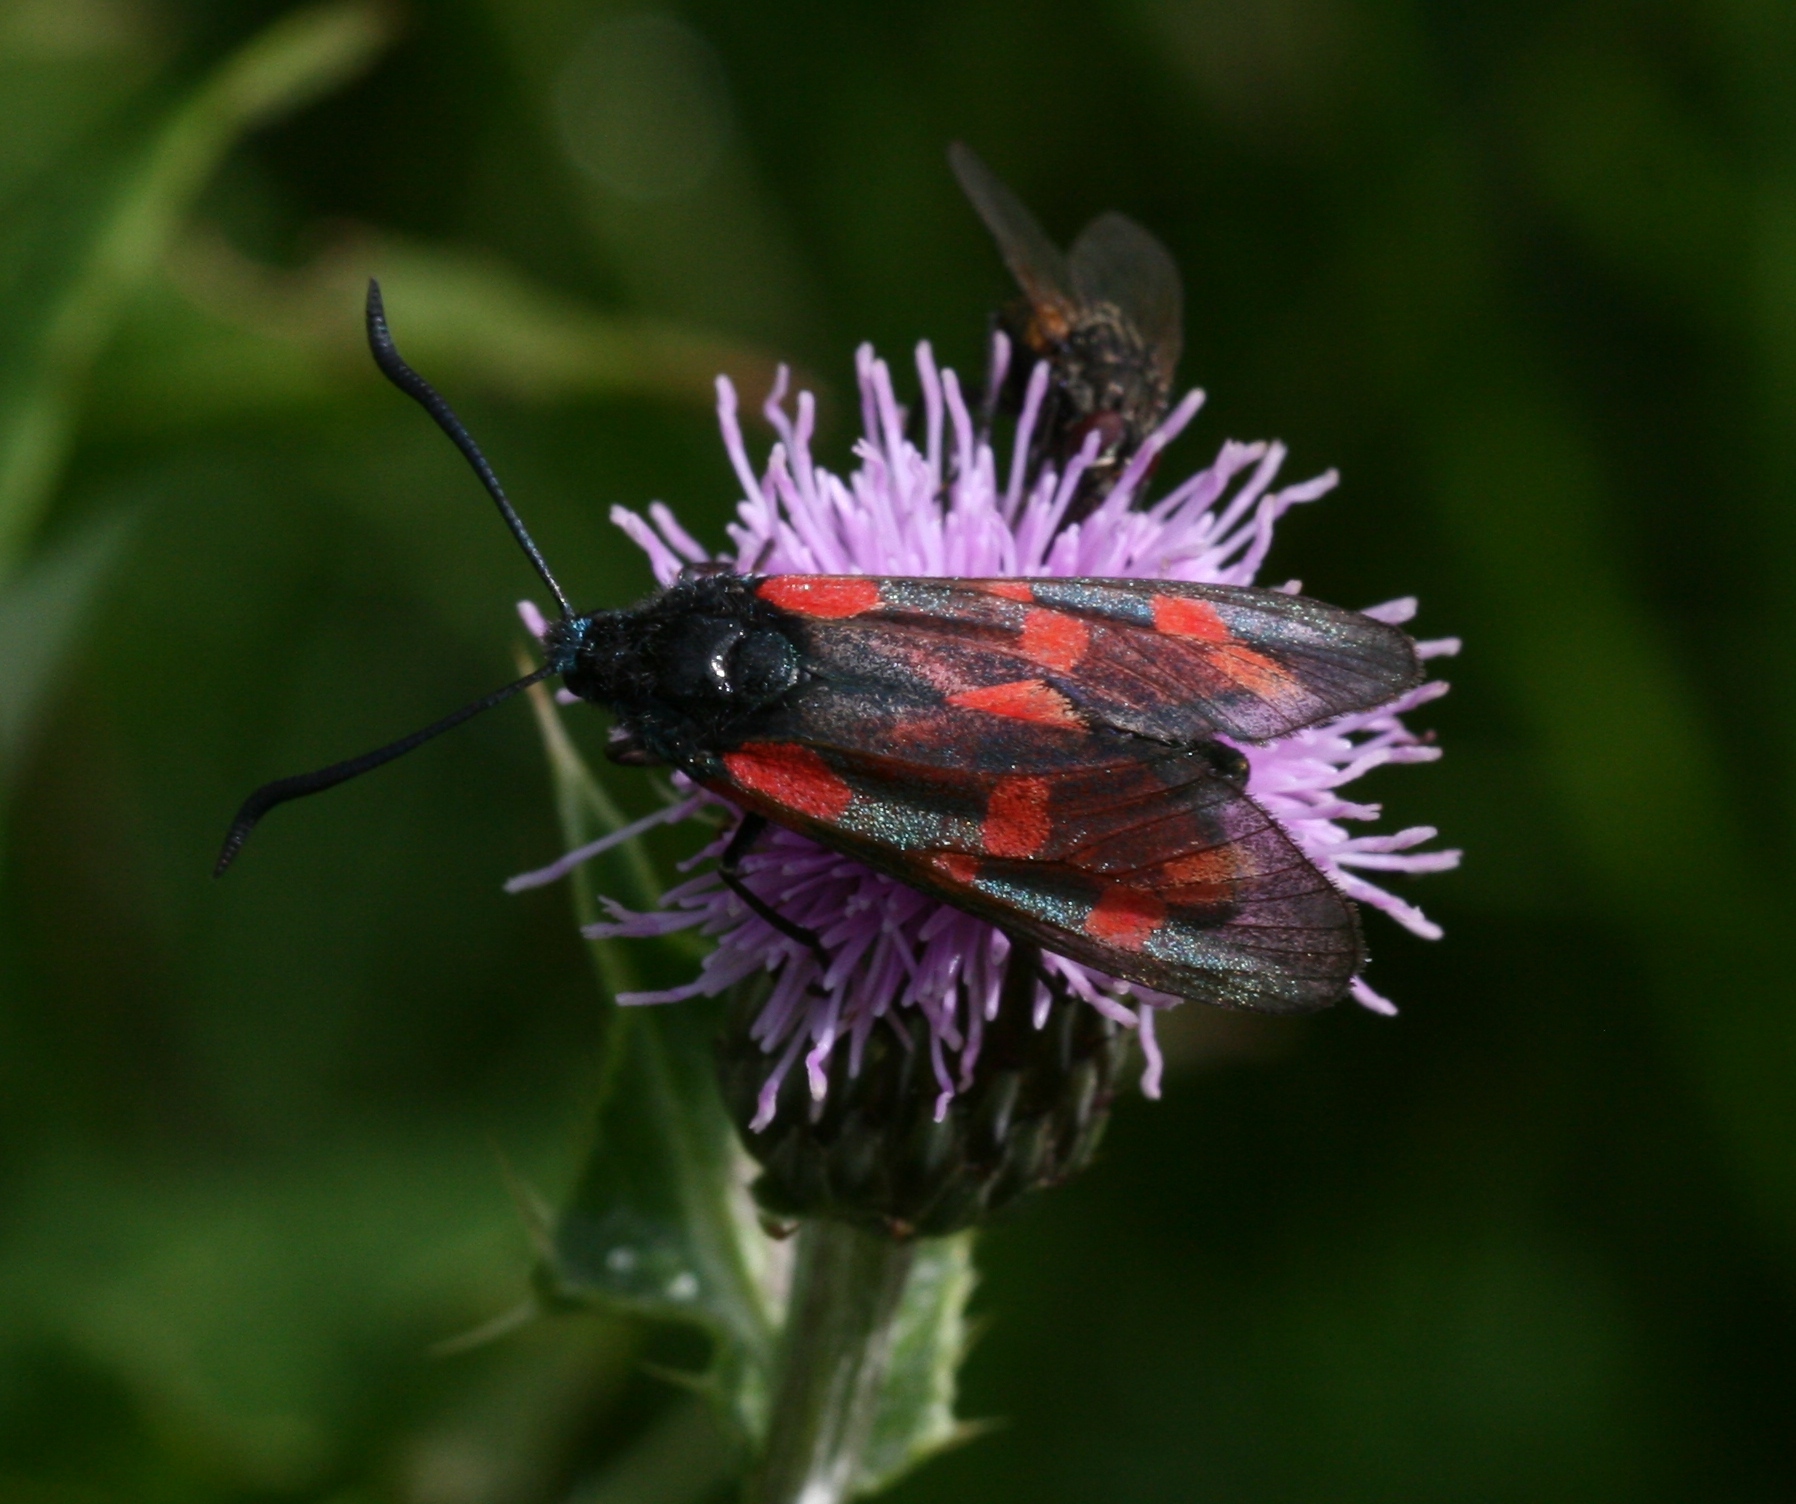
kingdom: Animalia
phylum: Arthropoda
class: Insecta
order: Lepidoptera
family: Zygaenidae
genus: Zygaena
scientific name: Zygaena filipendulae
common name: Six-spot burnet
